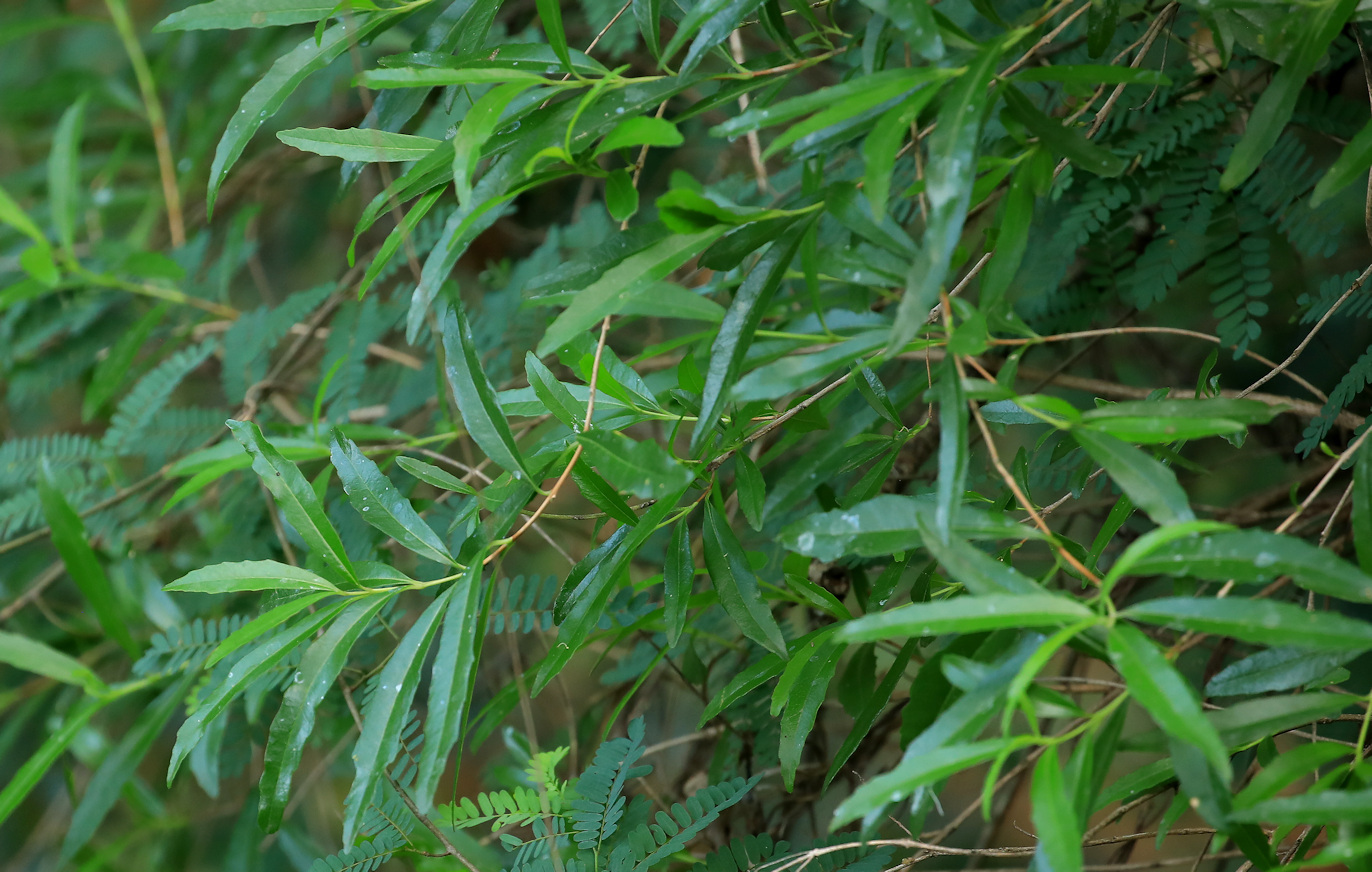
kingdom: Plantae
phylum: Tracheophyta
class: Magnoliopsida
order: Lamiales
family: Stilbaceae
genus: Nuxia
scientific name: Nuxia oppositifolia
